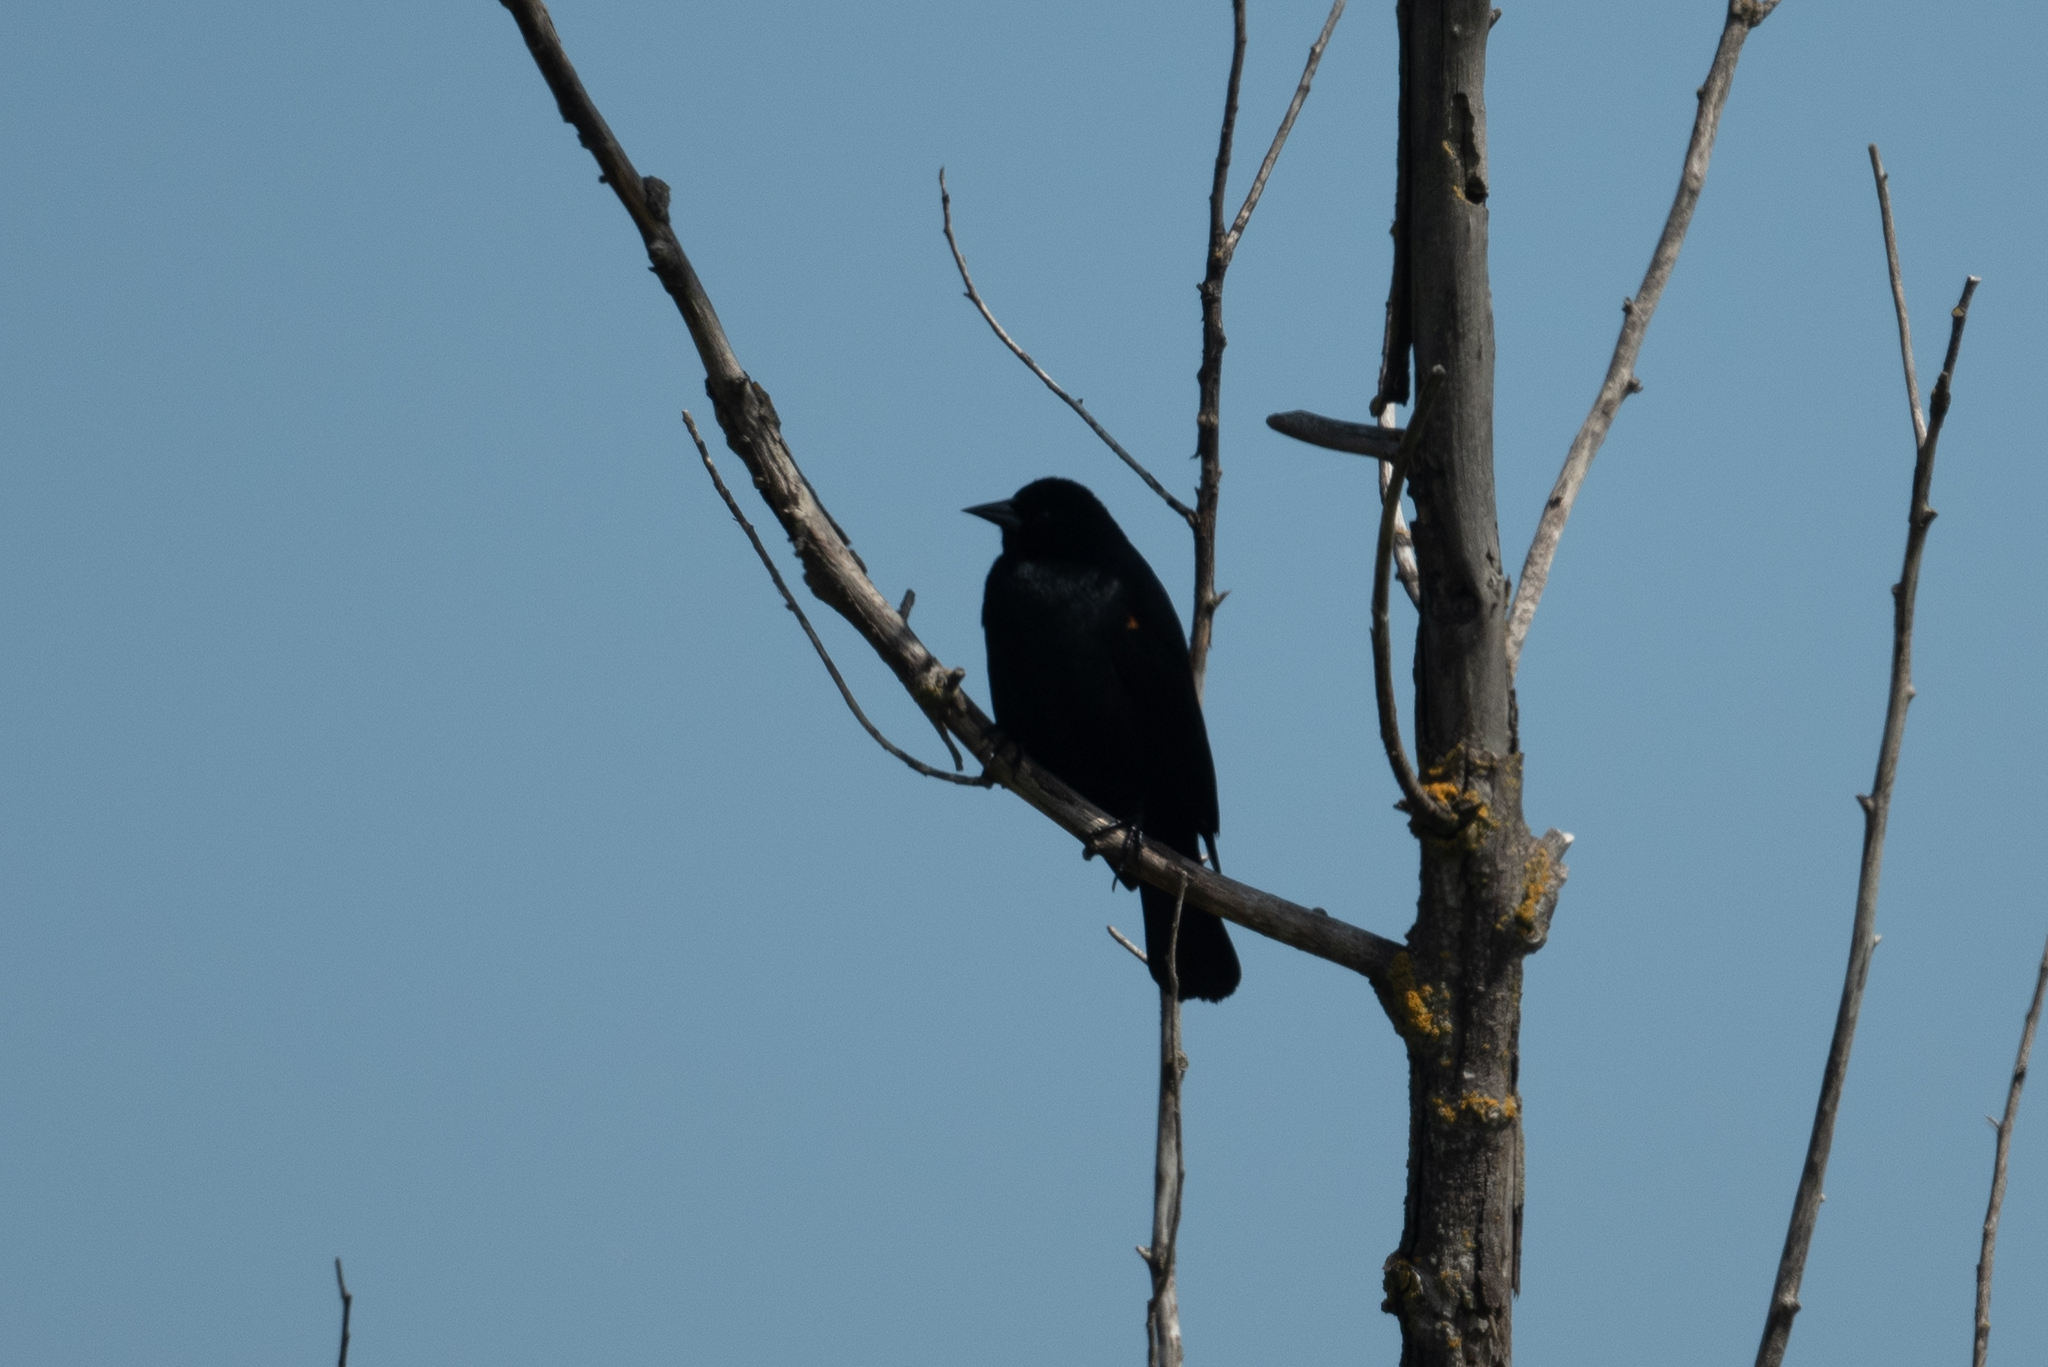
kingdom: Animalia
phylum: Chordata
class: Aves
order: Passeriformes
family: Icteridae
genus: Agelaius
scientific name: Agelaius phoeniceus
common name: Red-winged blackbird
